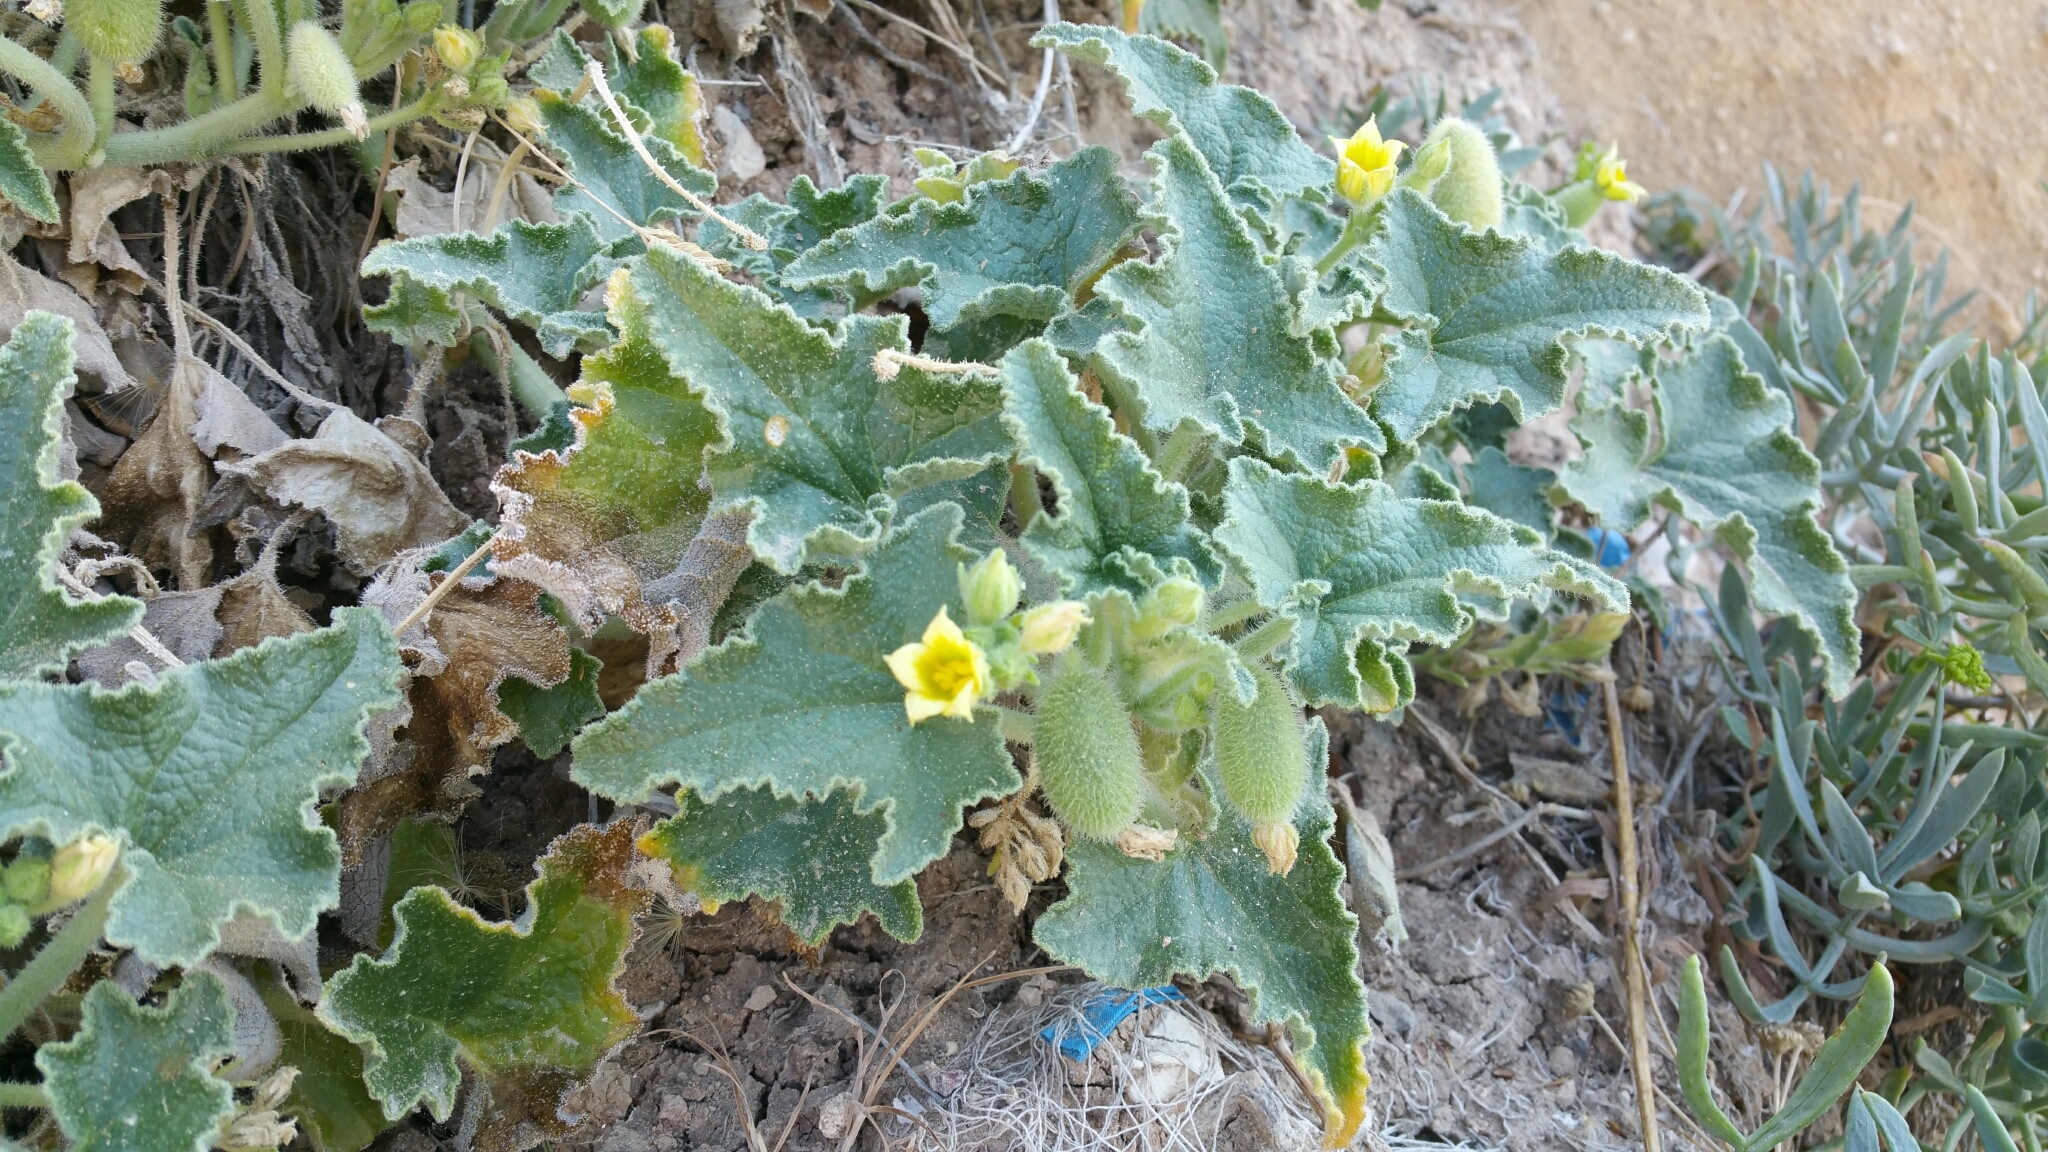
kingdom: Plantae
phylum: Tracheophyta
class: Magnoliopsida
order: Cucurbitales
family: Cucurbitaceae
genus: Ecballium
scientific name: Ecballium elaterium
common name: Squirting cucumber
